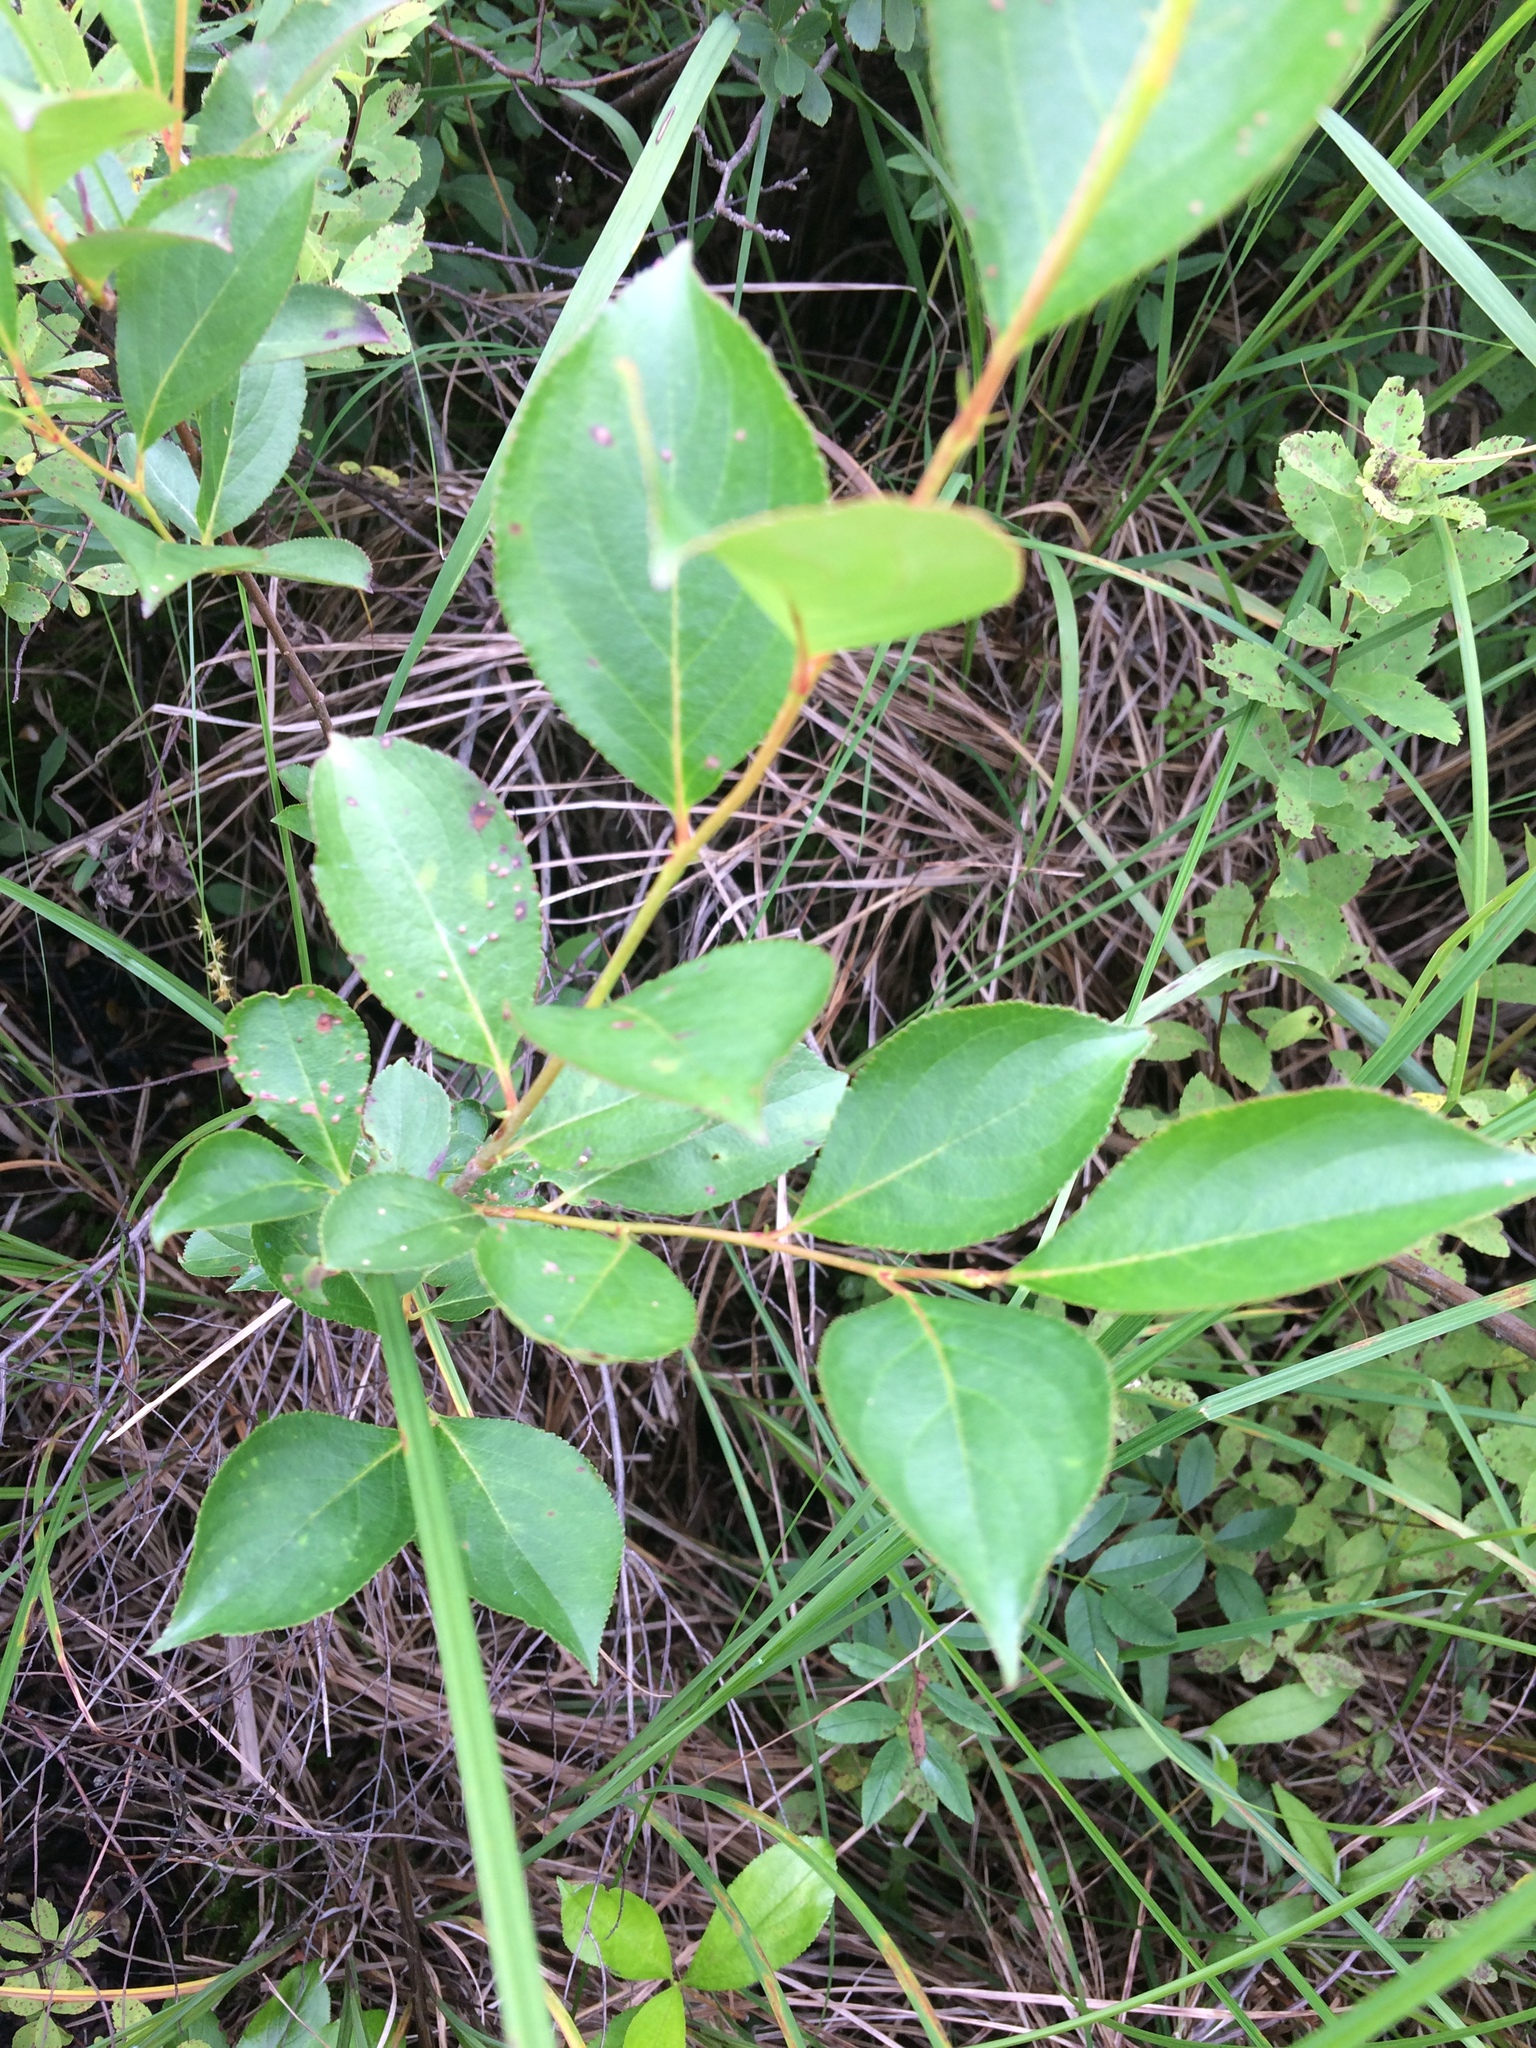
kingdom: Plantae
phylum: Tracheophyta
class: Magnoliopsida
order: Rosales
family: Rosaceae
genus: Prunus
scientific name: Prunus virginiana
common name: Chokecherry
